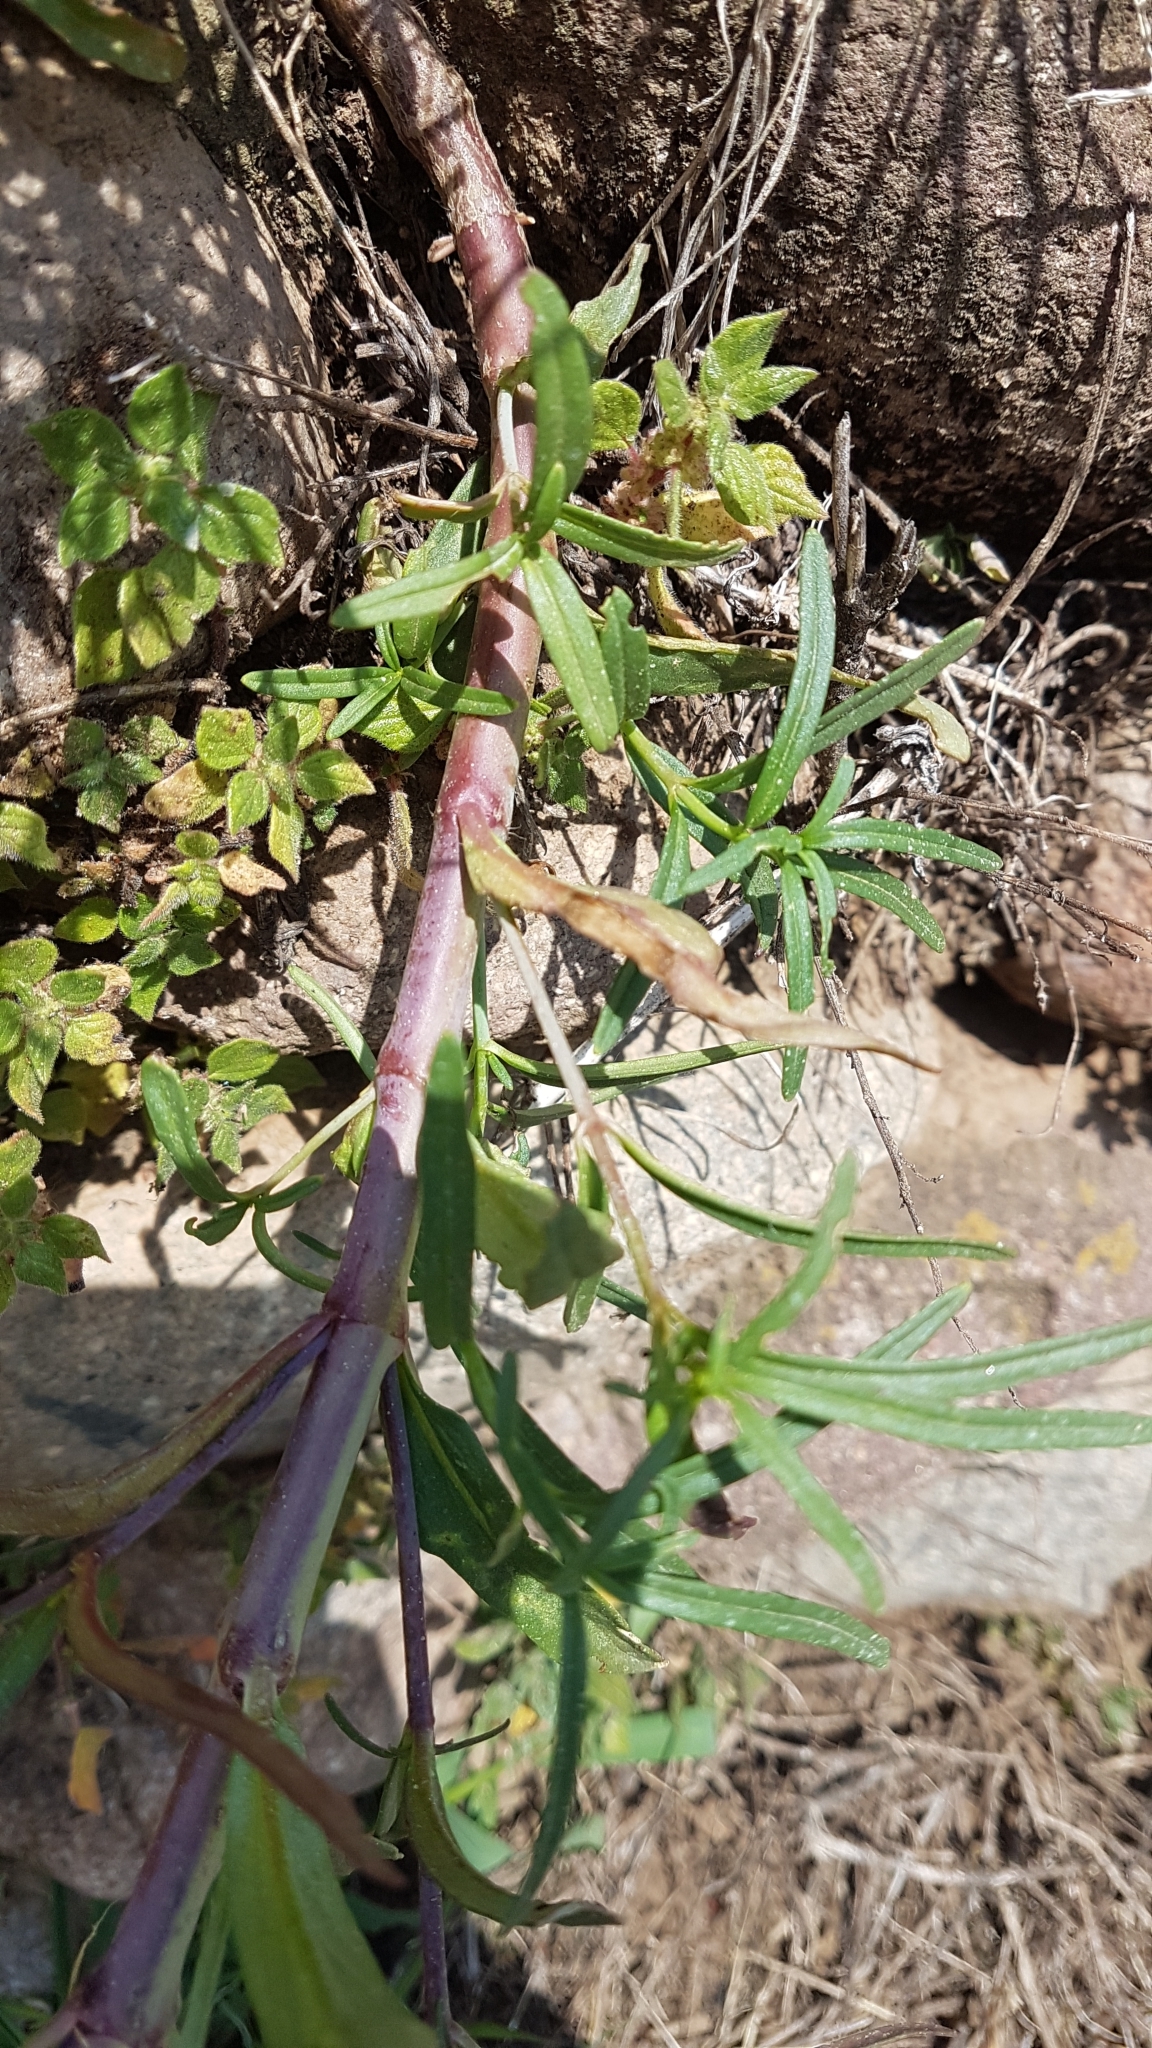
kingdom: Plantae
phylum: Tracheophyta
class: Magnoliopsida
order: Lamiales
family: Plantaginaceae
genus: Misopates
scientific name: Misopates orontium
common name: Weasel's-snout
